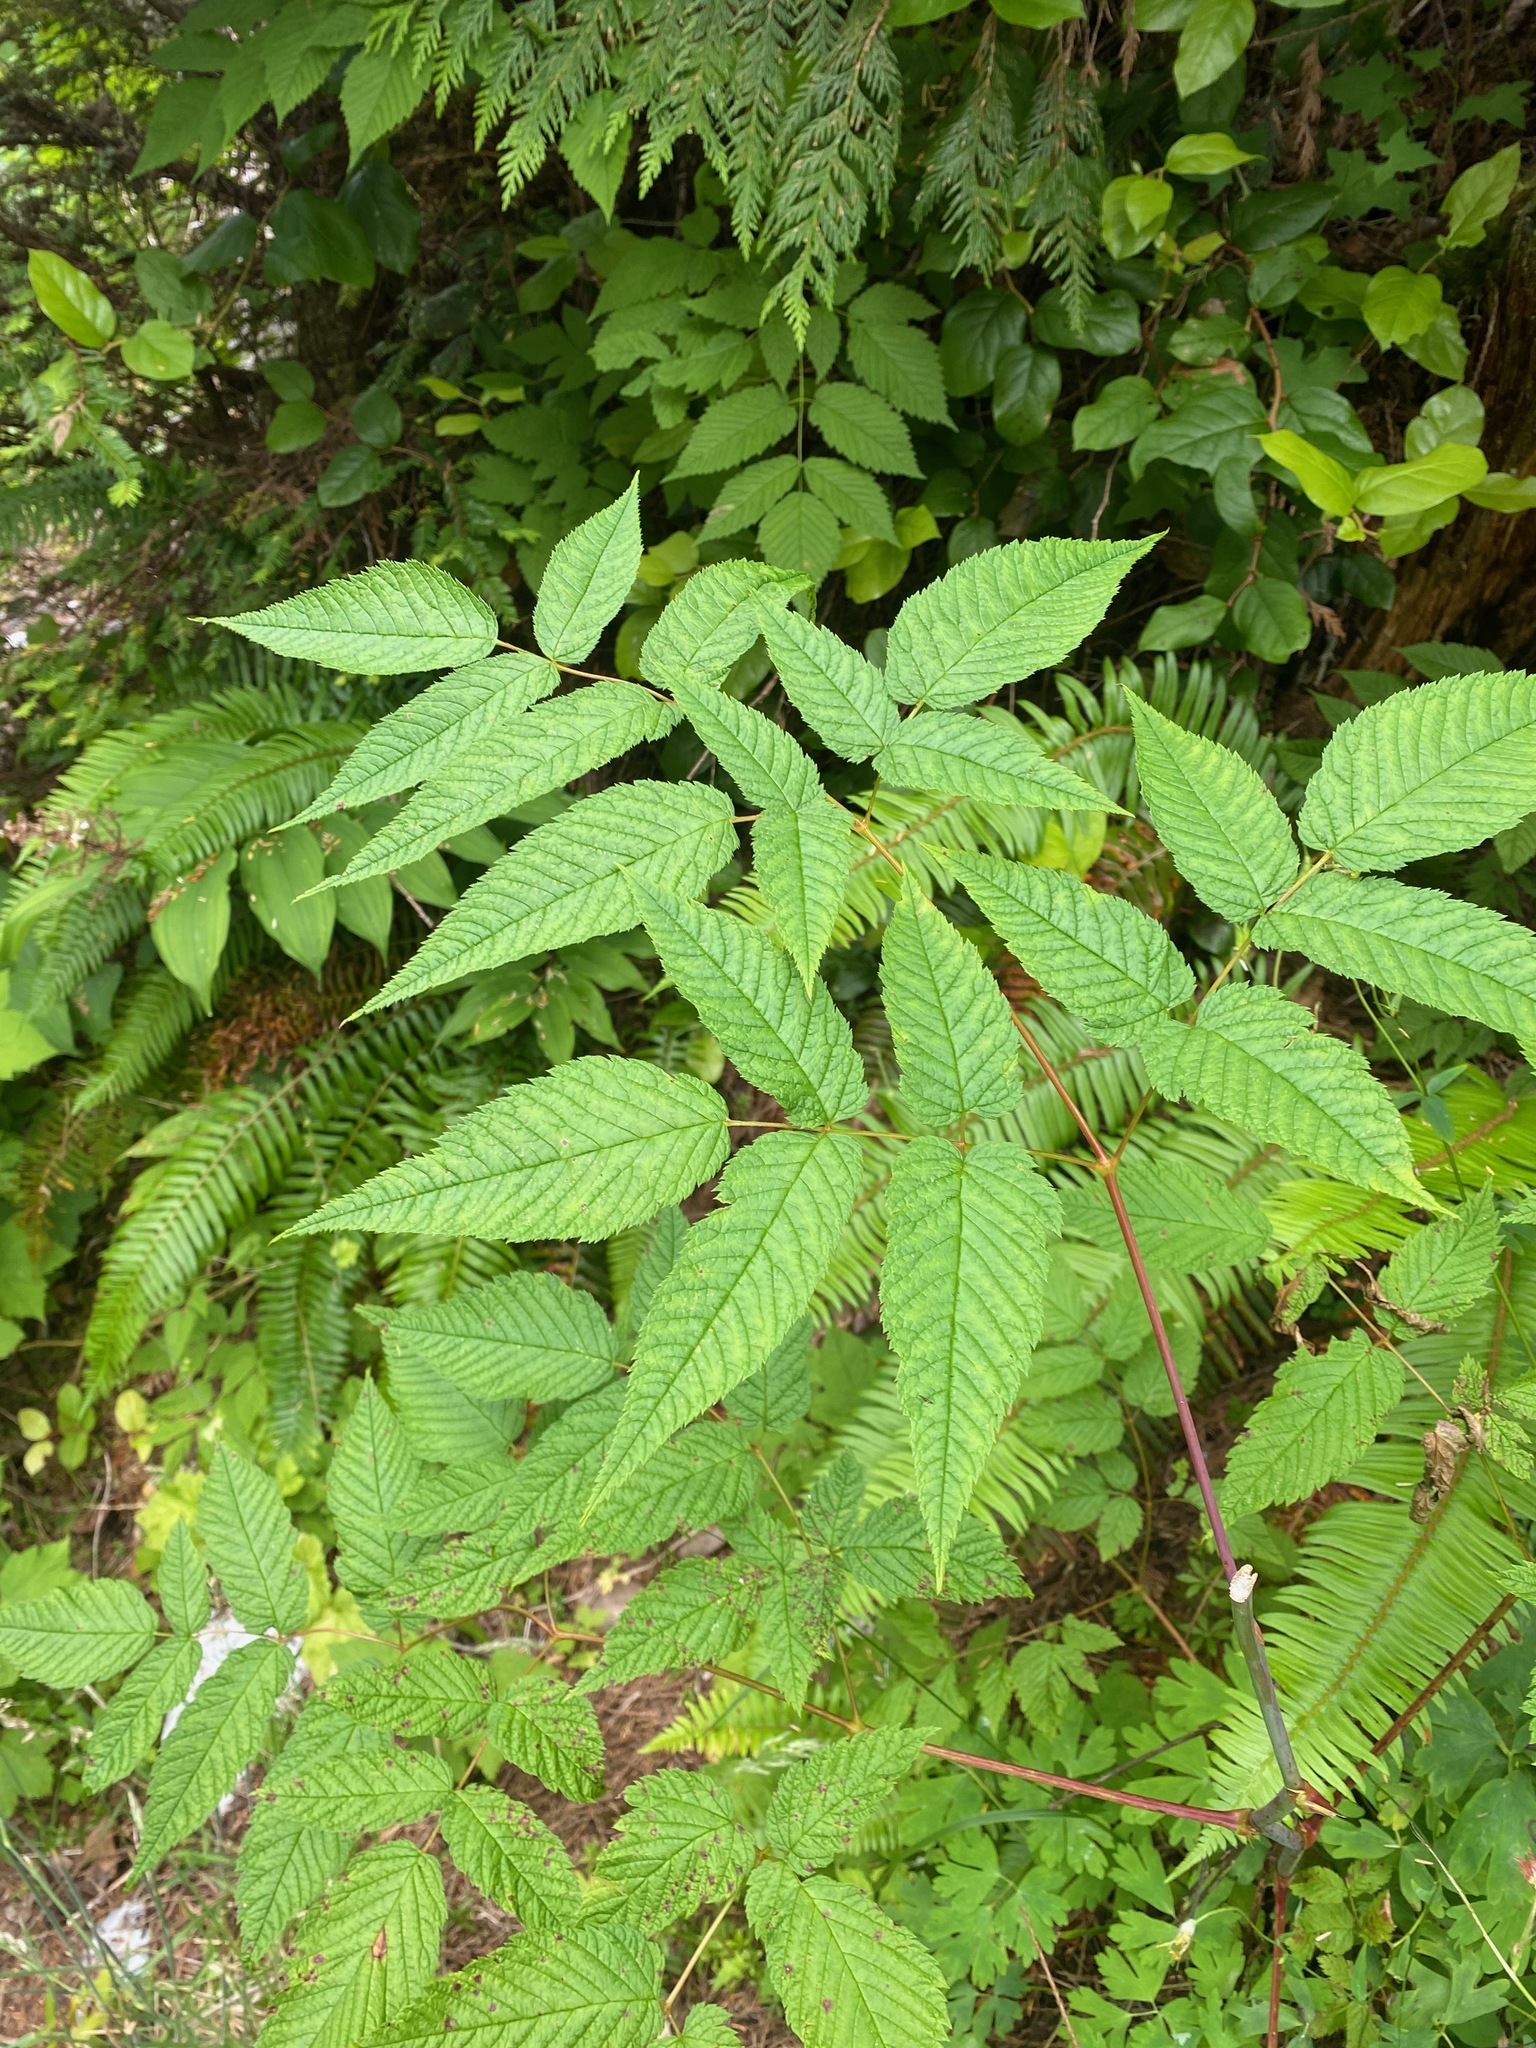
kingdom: Plantae
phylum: Tracheophyta
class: Magnoliopsida
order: Rosales
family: Rosaceae
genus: Aruncus
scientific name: Aruncus dioicus
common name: Buck's-beard
